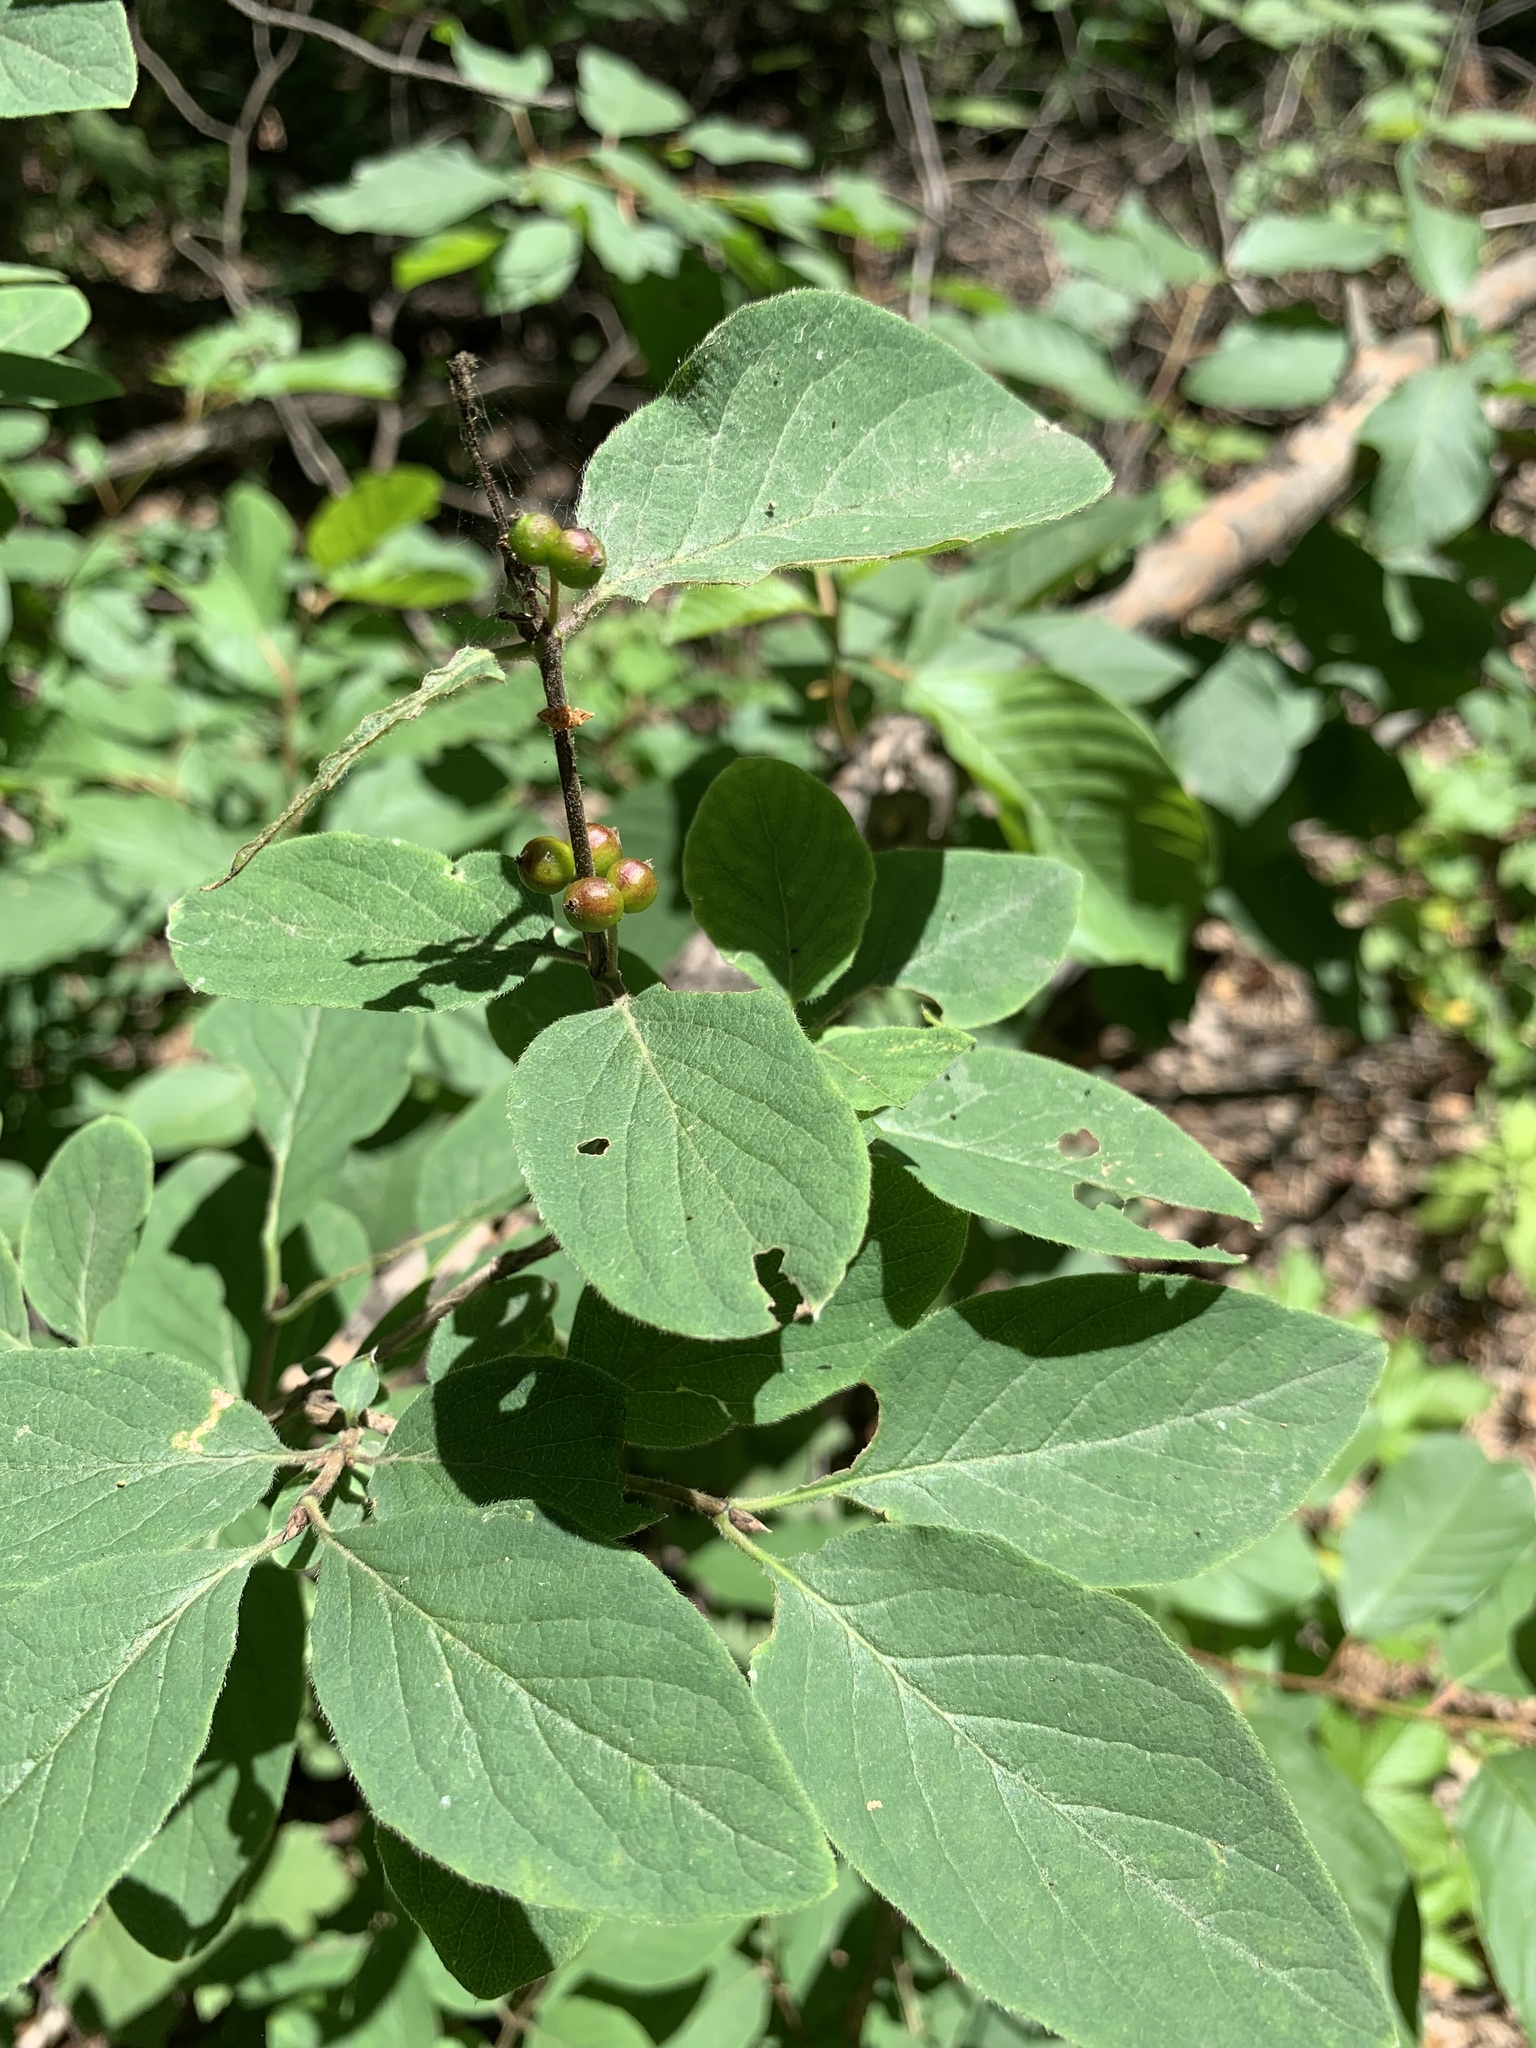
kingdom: Plantae
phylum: Tracheophyta
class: Magnoliopsida
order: Dipsacales
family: Caprifoliaceae
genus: Lonicera
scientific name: Lonicera xylosteum
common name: Fly honeysuckle
